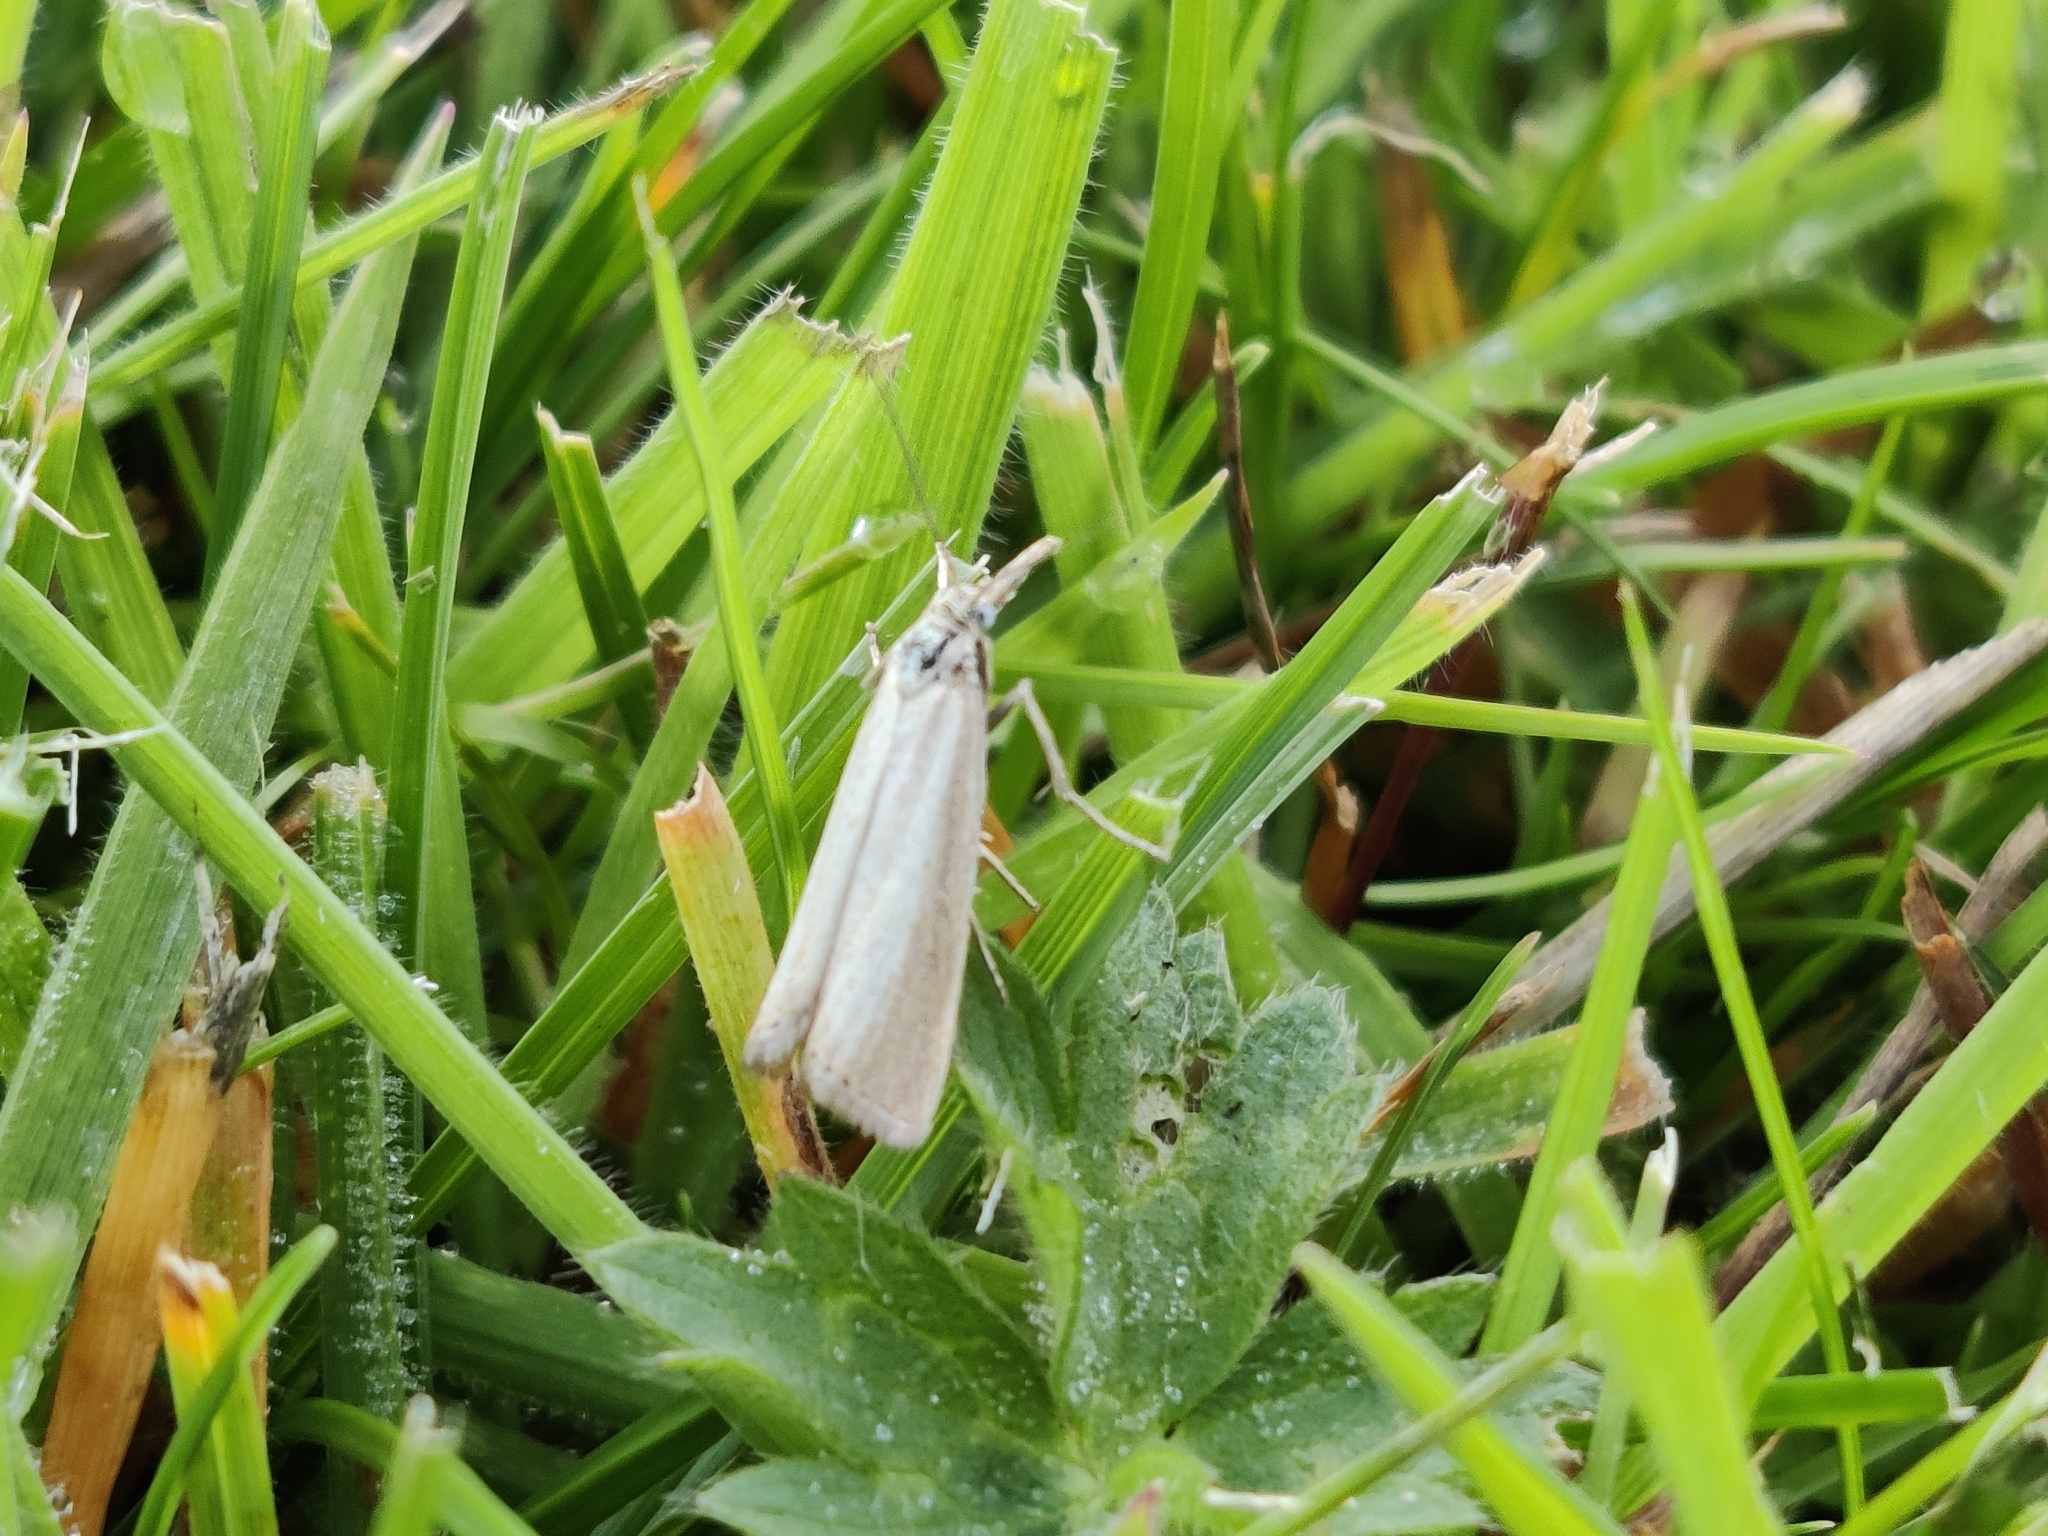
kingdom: Animalia
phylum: Arthropoda
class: Insecta
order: Lepidoptera
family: Crambidae
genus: Agriphila
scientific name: Agriphila straminella
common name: Straw grass-veneer
